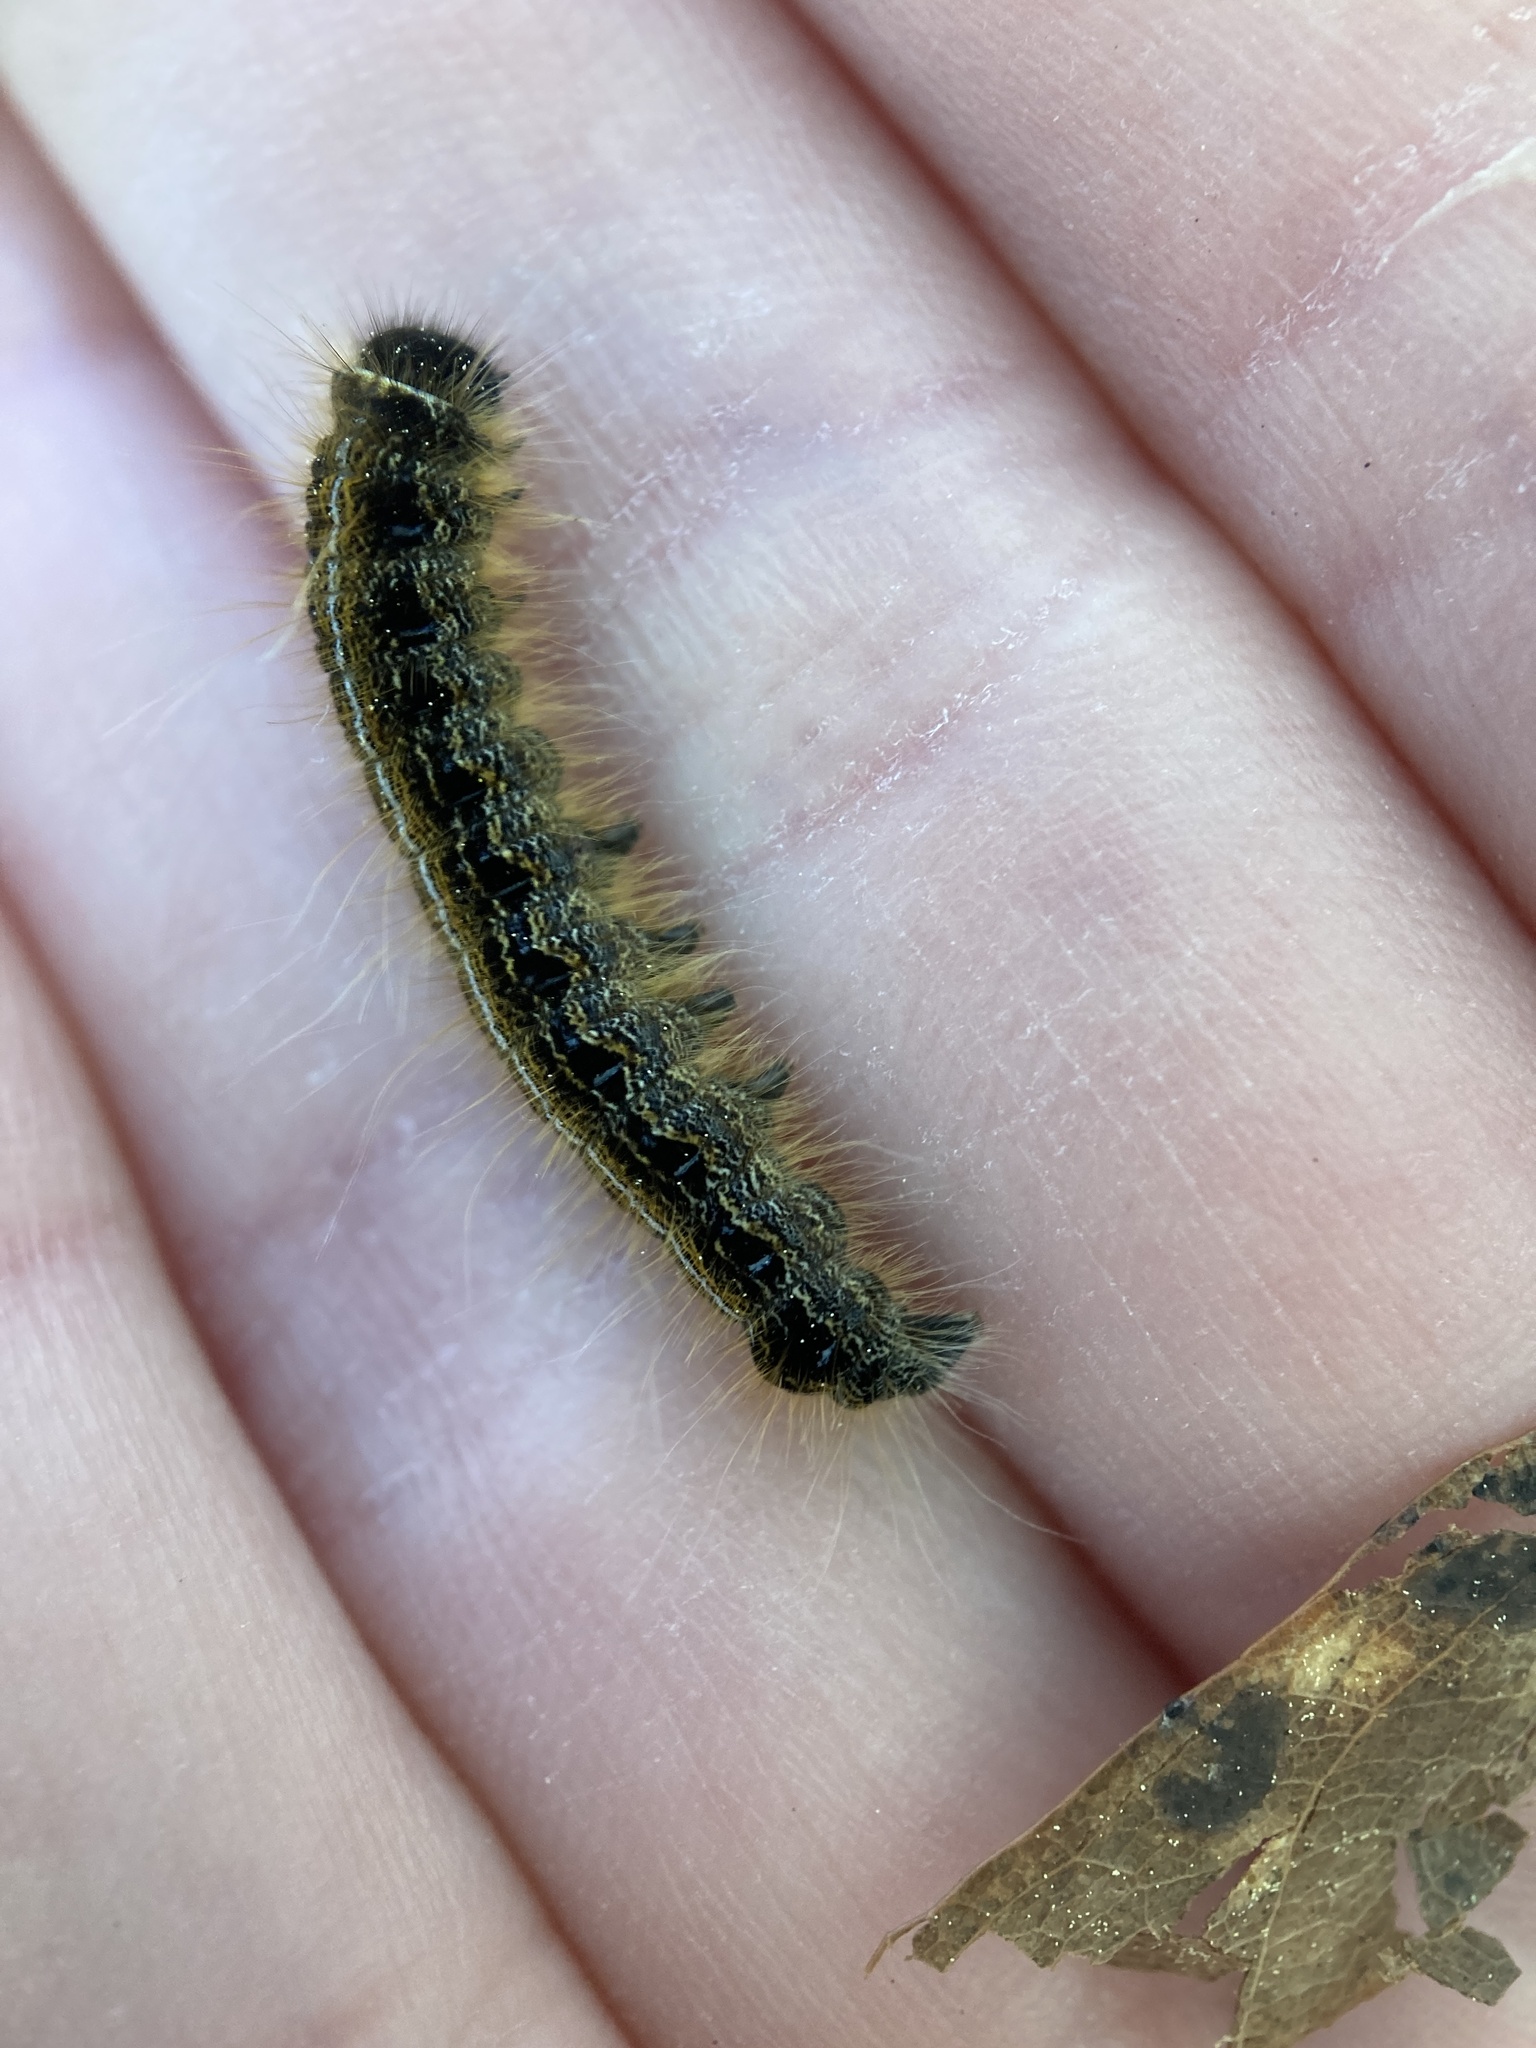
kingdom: Animalia
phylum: Arthropoda
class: Insecta
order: Lepidoptera
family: Lasiocampidae
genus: Malacosoma
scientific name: Malacosoma americana
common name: Eastern tent caterpillar moth
